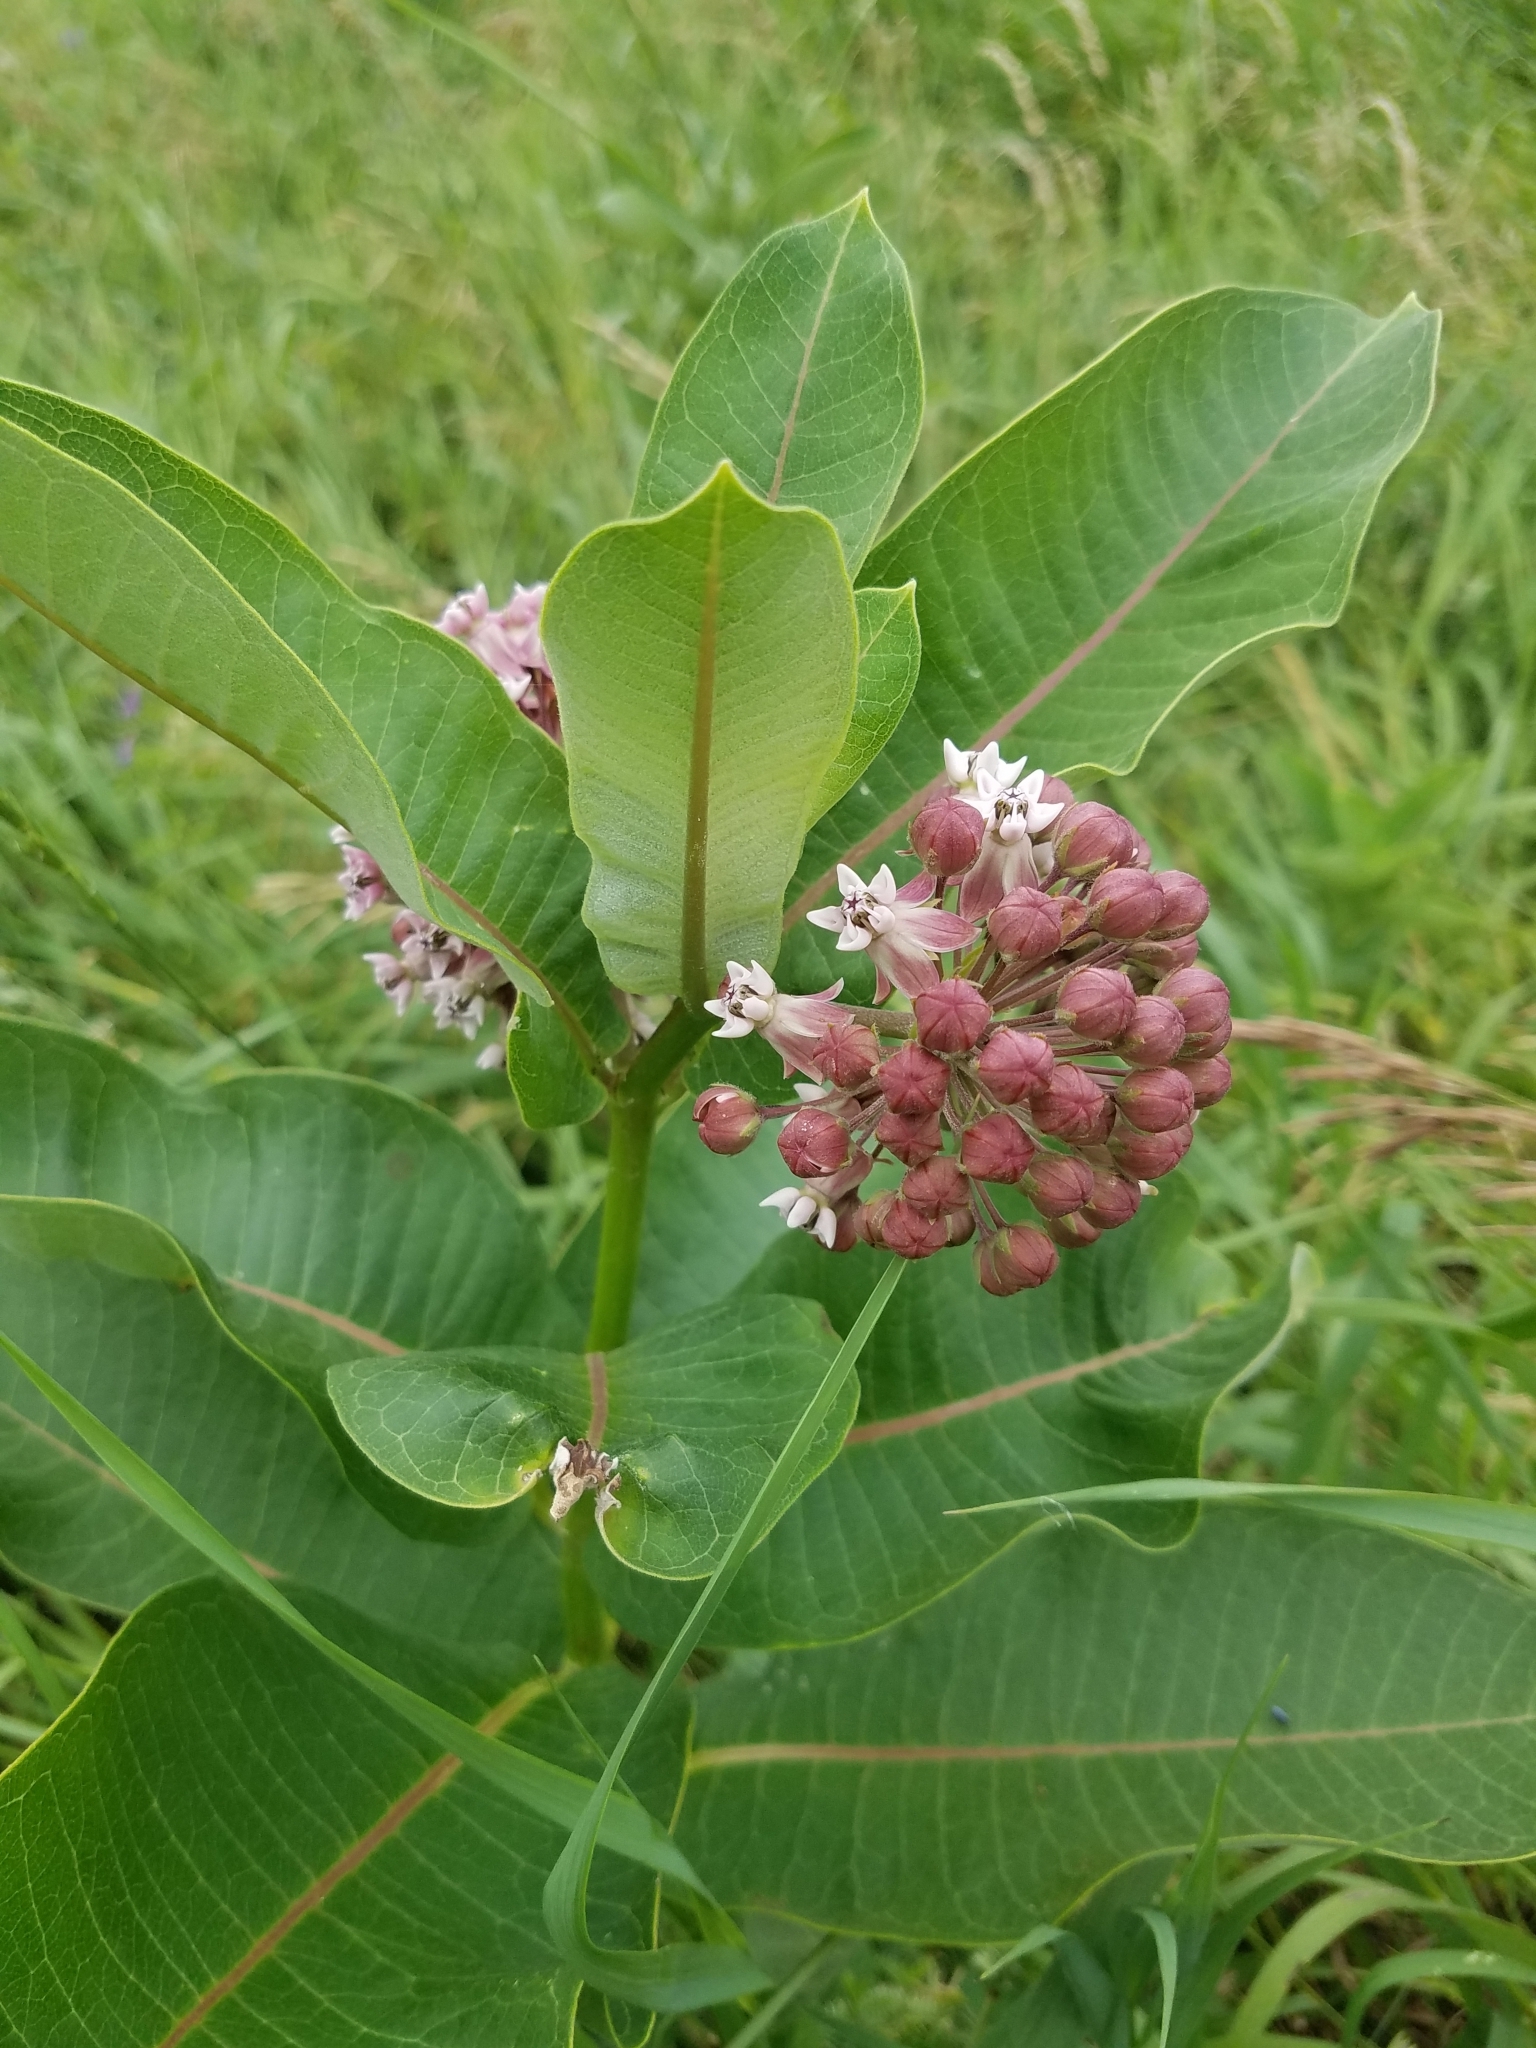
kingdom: Plantae
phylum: Tracheophyta
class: Magnoliopsida
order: Gentianales
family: Apocynaceae
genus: Asclepias
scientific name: Asclepias syriaca
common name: Common milkweed
